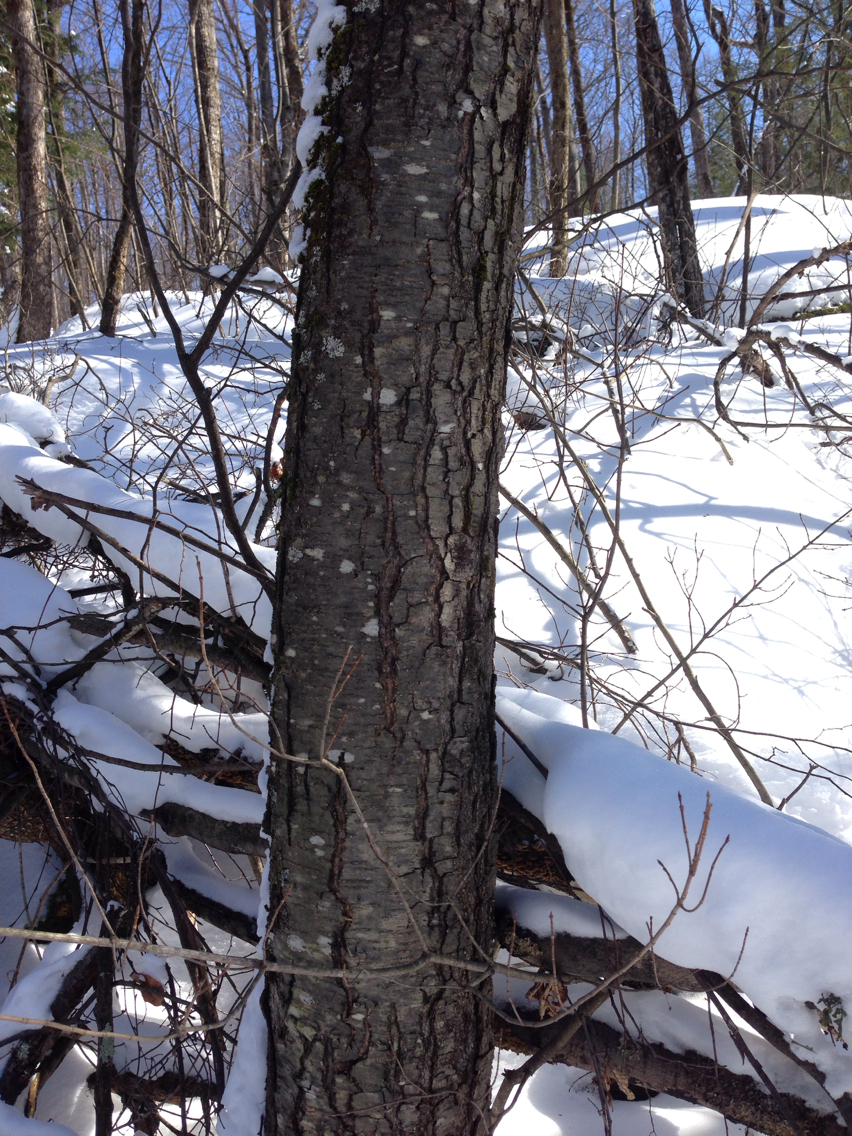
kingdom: Plantae
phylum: Tracheophyta
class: Magnoliopsida
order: Fagales
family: Betulaceae
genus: Betula
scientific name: Betula lenta
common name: Black birch
